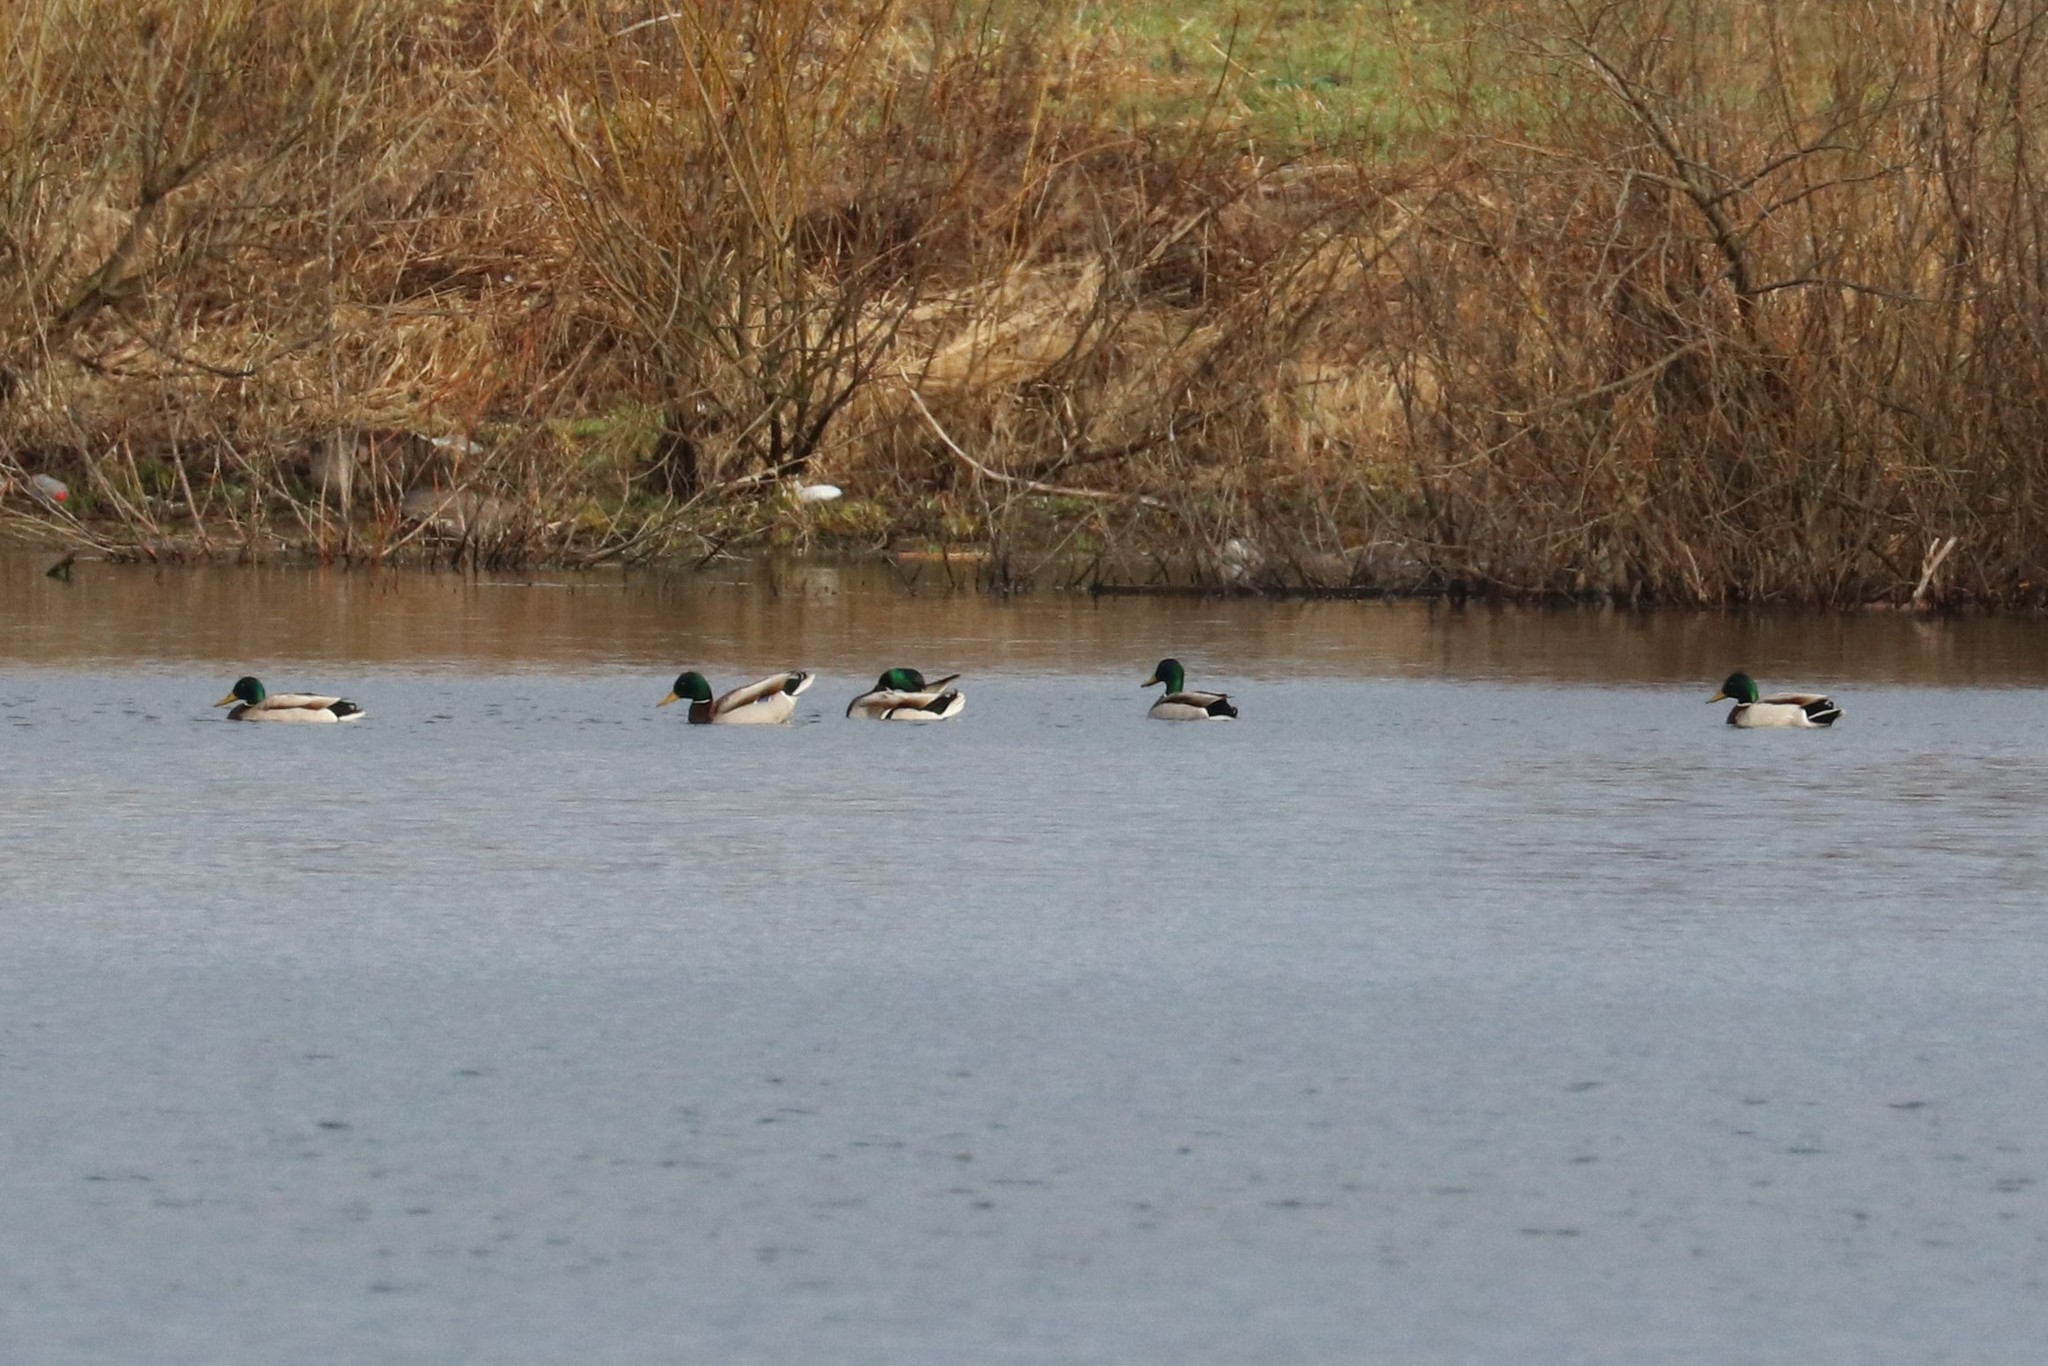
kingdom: Animalia
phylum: Chordata
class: Aves
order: Anseriformes
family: Anatidae
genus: Anas
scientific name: Anas platyrhynchos
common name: Mallard
